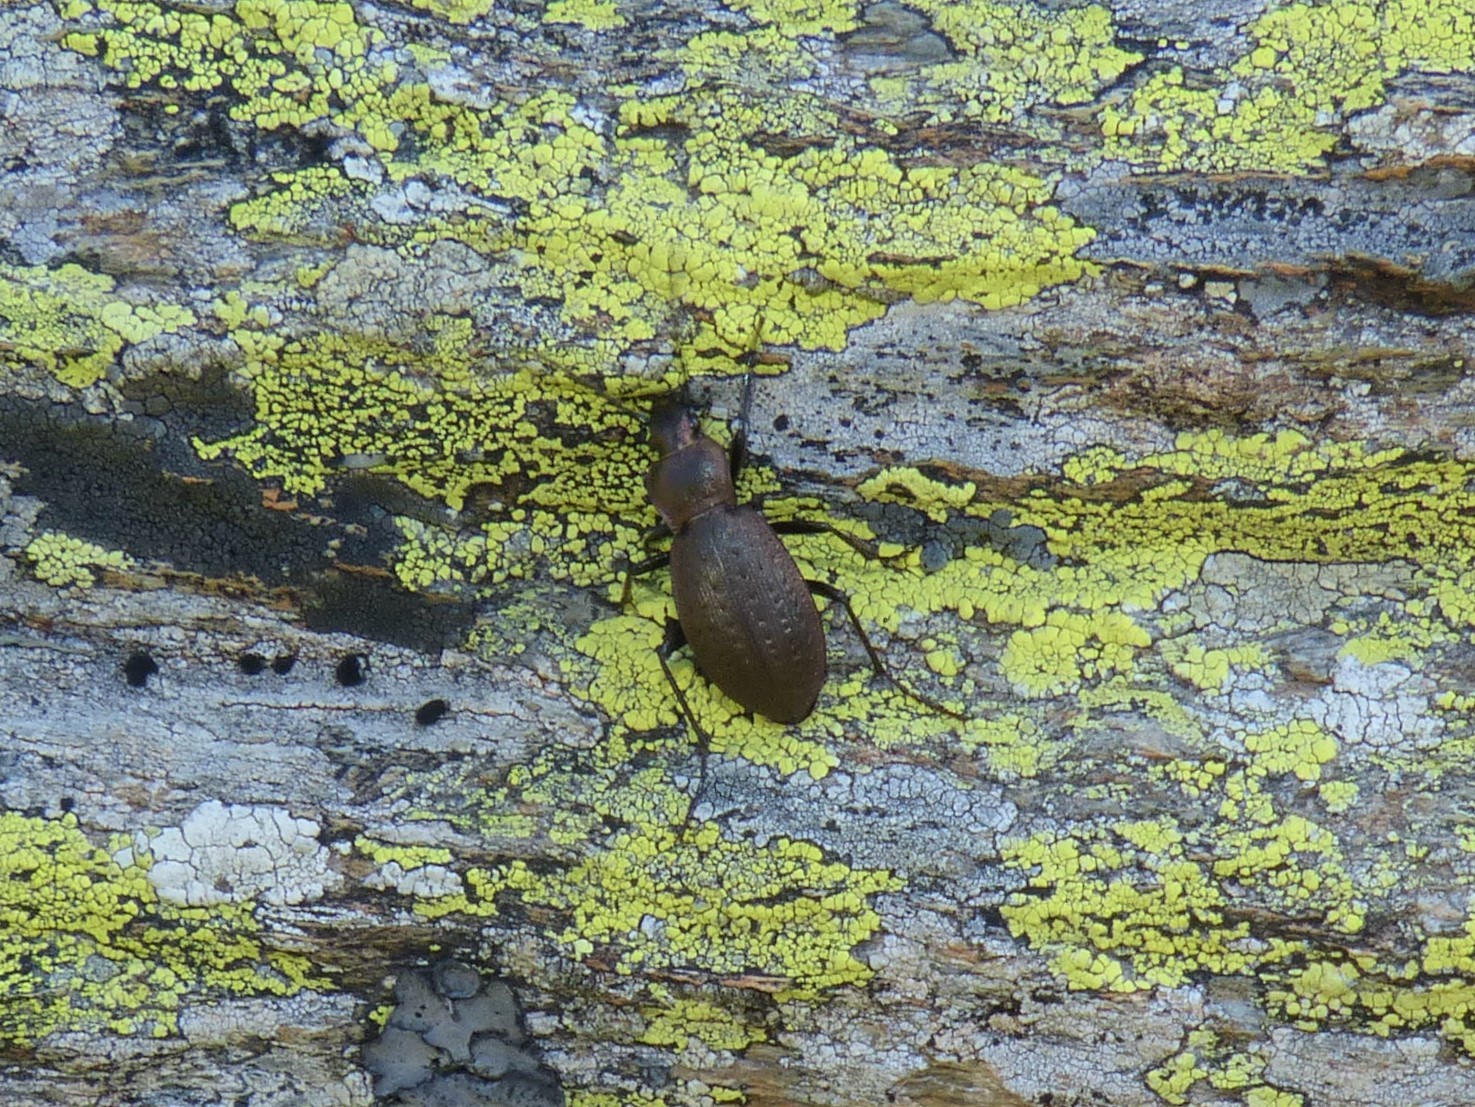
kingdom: Animalia
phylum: Arthropoda
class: Insecta
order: Coleoptera
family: Carabidae
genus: Carabus
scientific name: Carabus concolor
